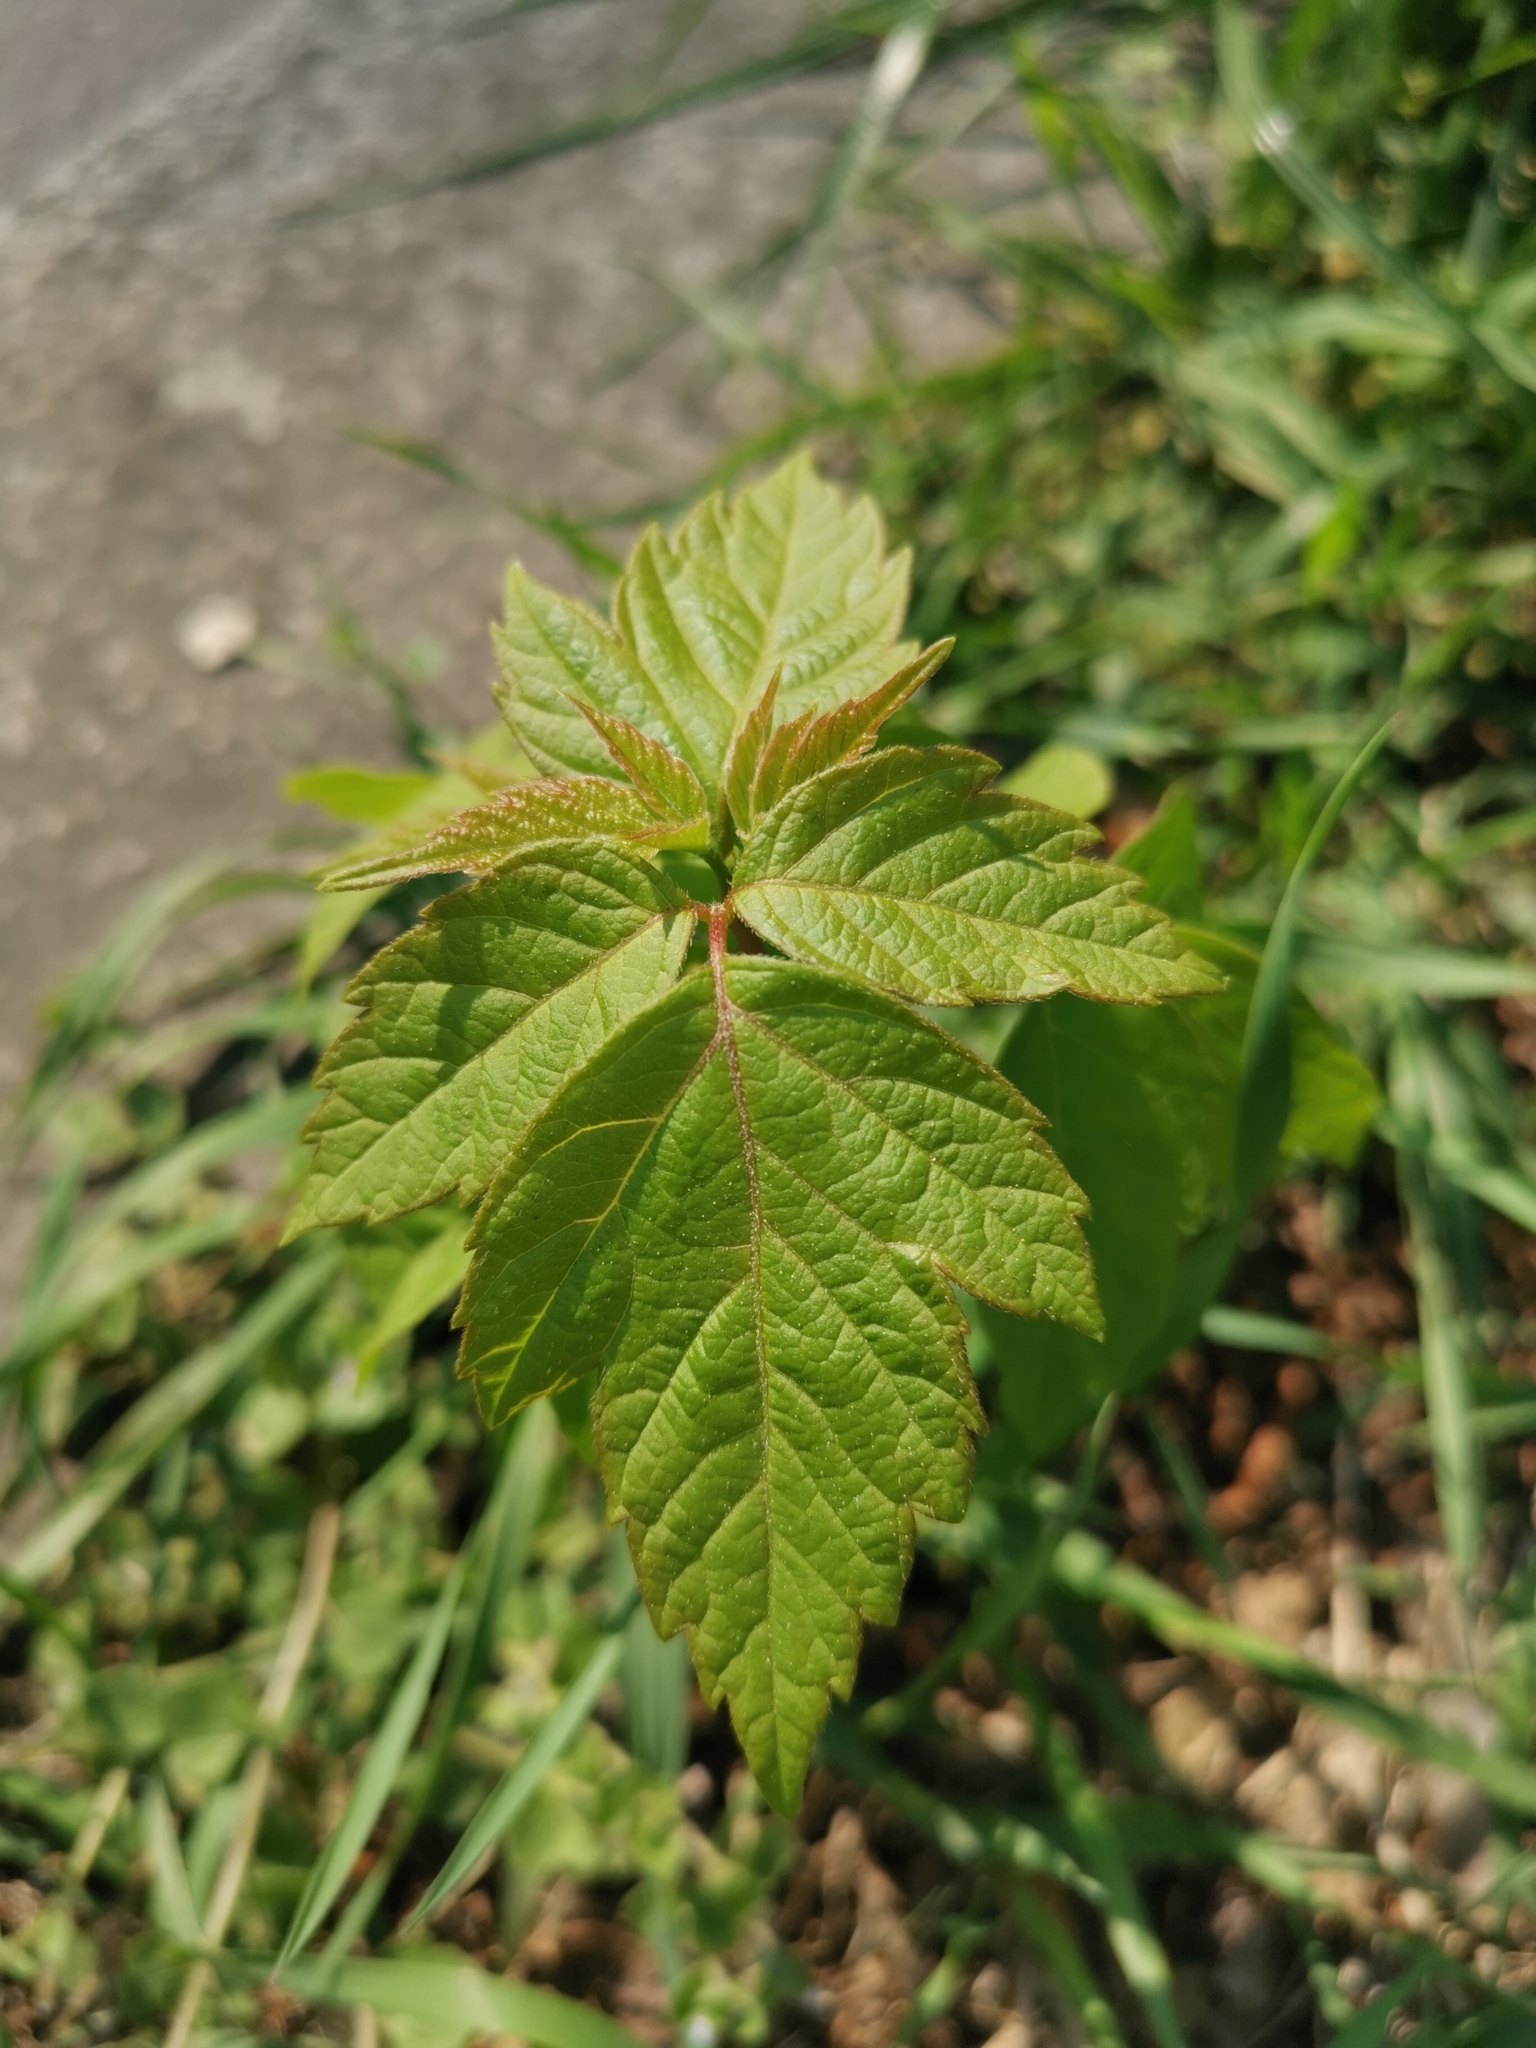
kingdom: Plantae
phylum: Tracheophyta
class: Magnoliopsida
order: Sapindales
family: Sapindaceae
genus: Acer
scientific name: Acer negundo
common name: Ashleaf maple
